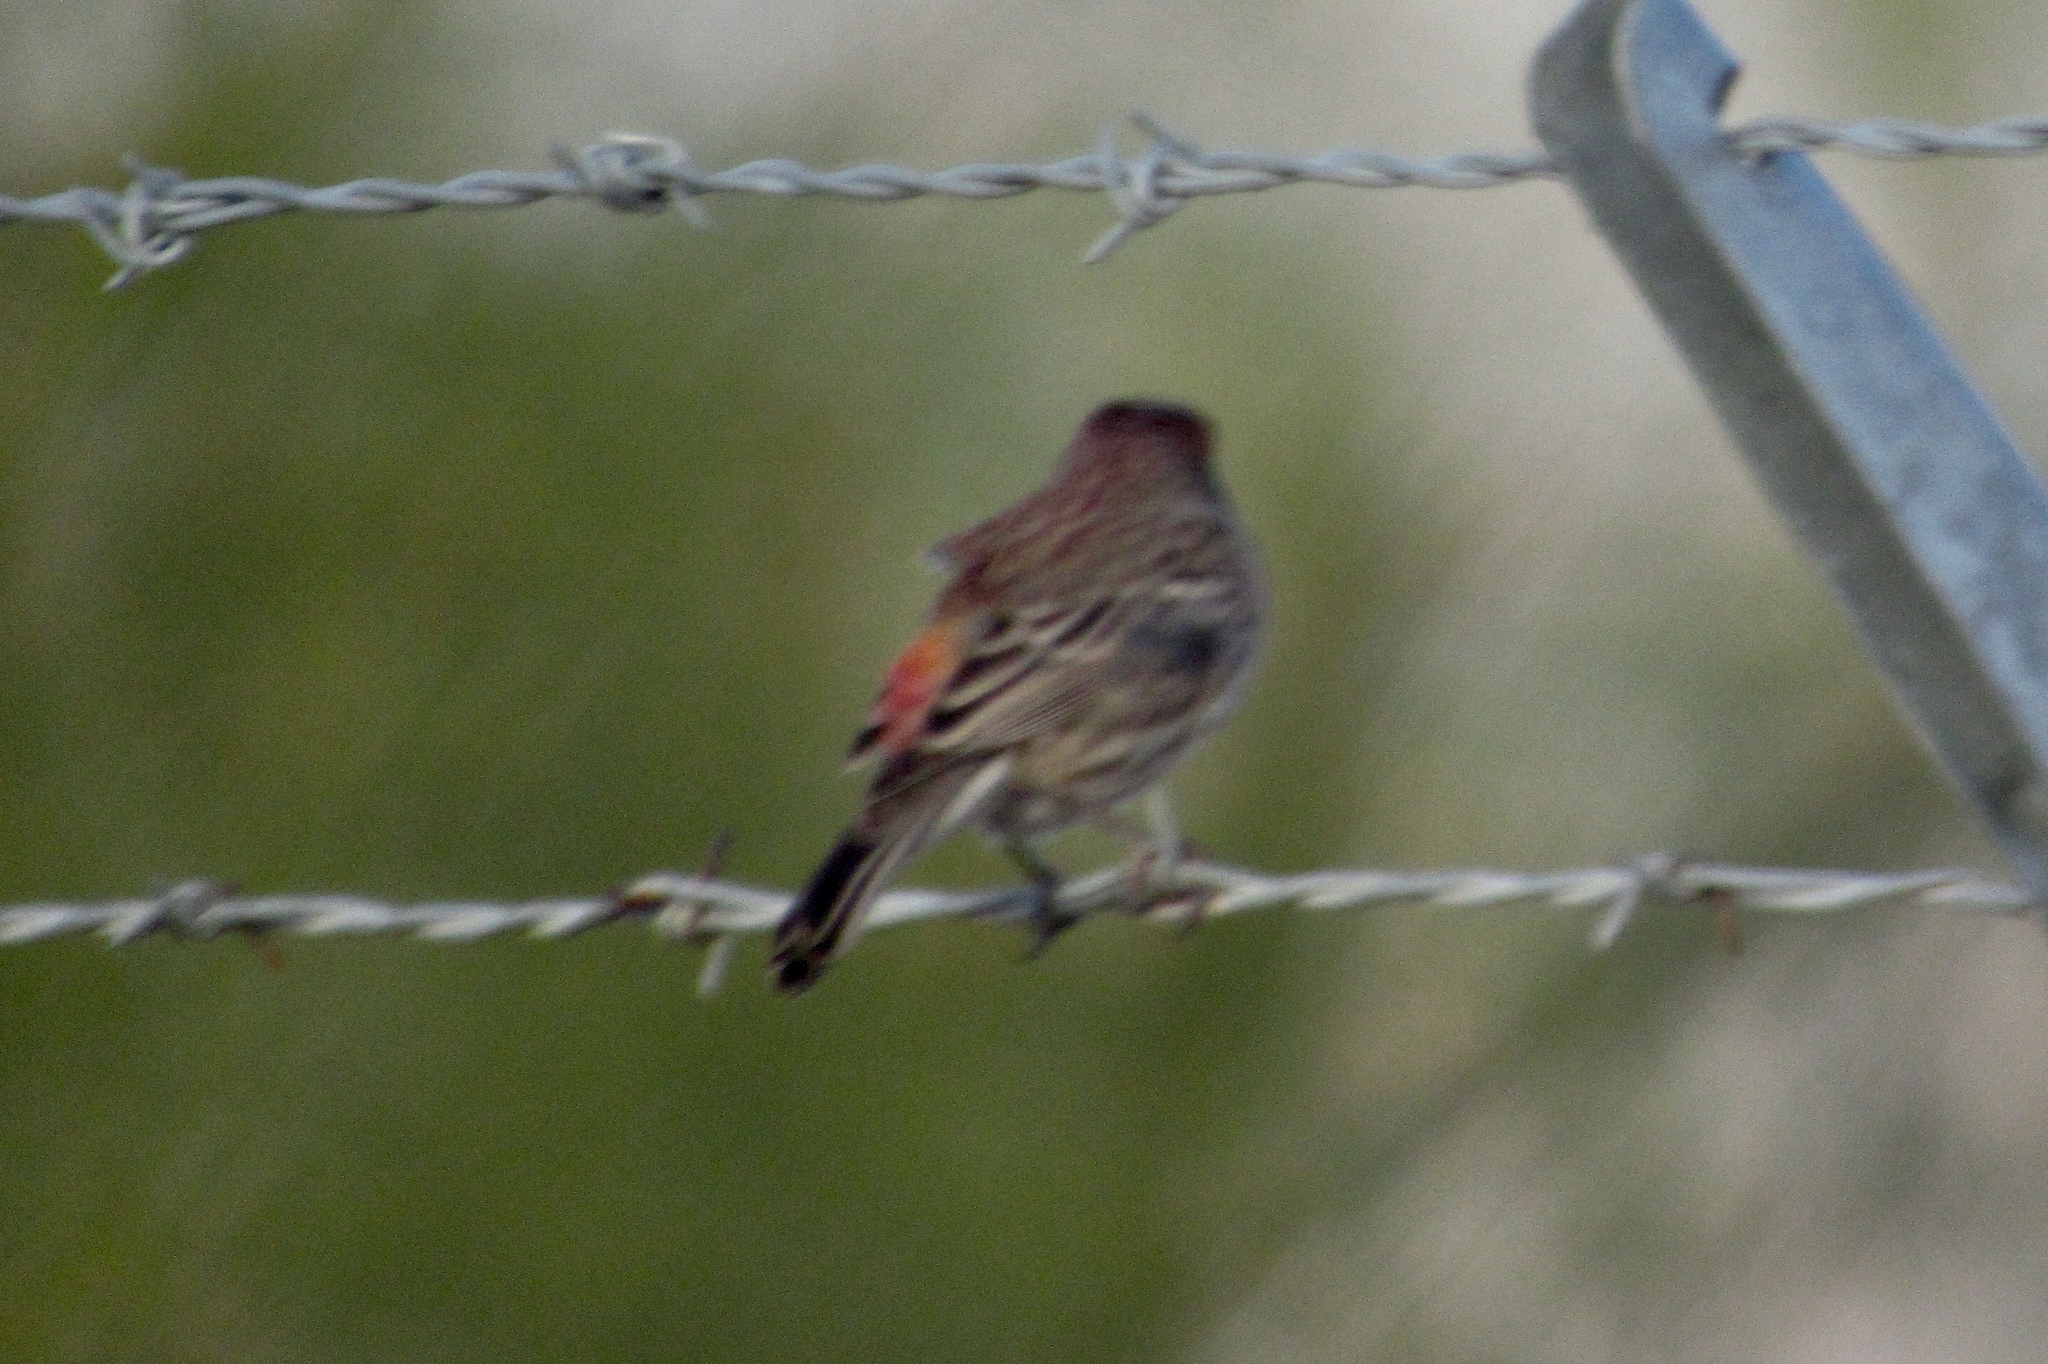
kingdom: Animalia
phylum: Chordata
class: Aves
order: Passeriformes
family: Fringillidae
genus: Haemorhous
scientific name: Haemorhous mexicanus
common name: House finch
